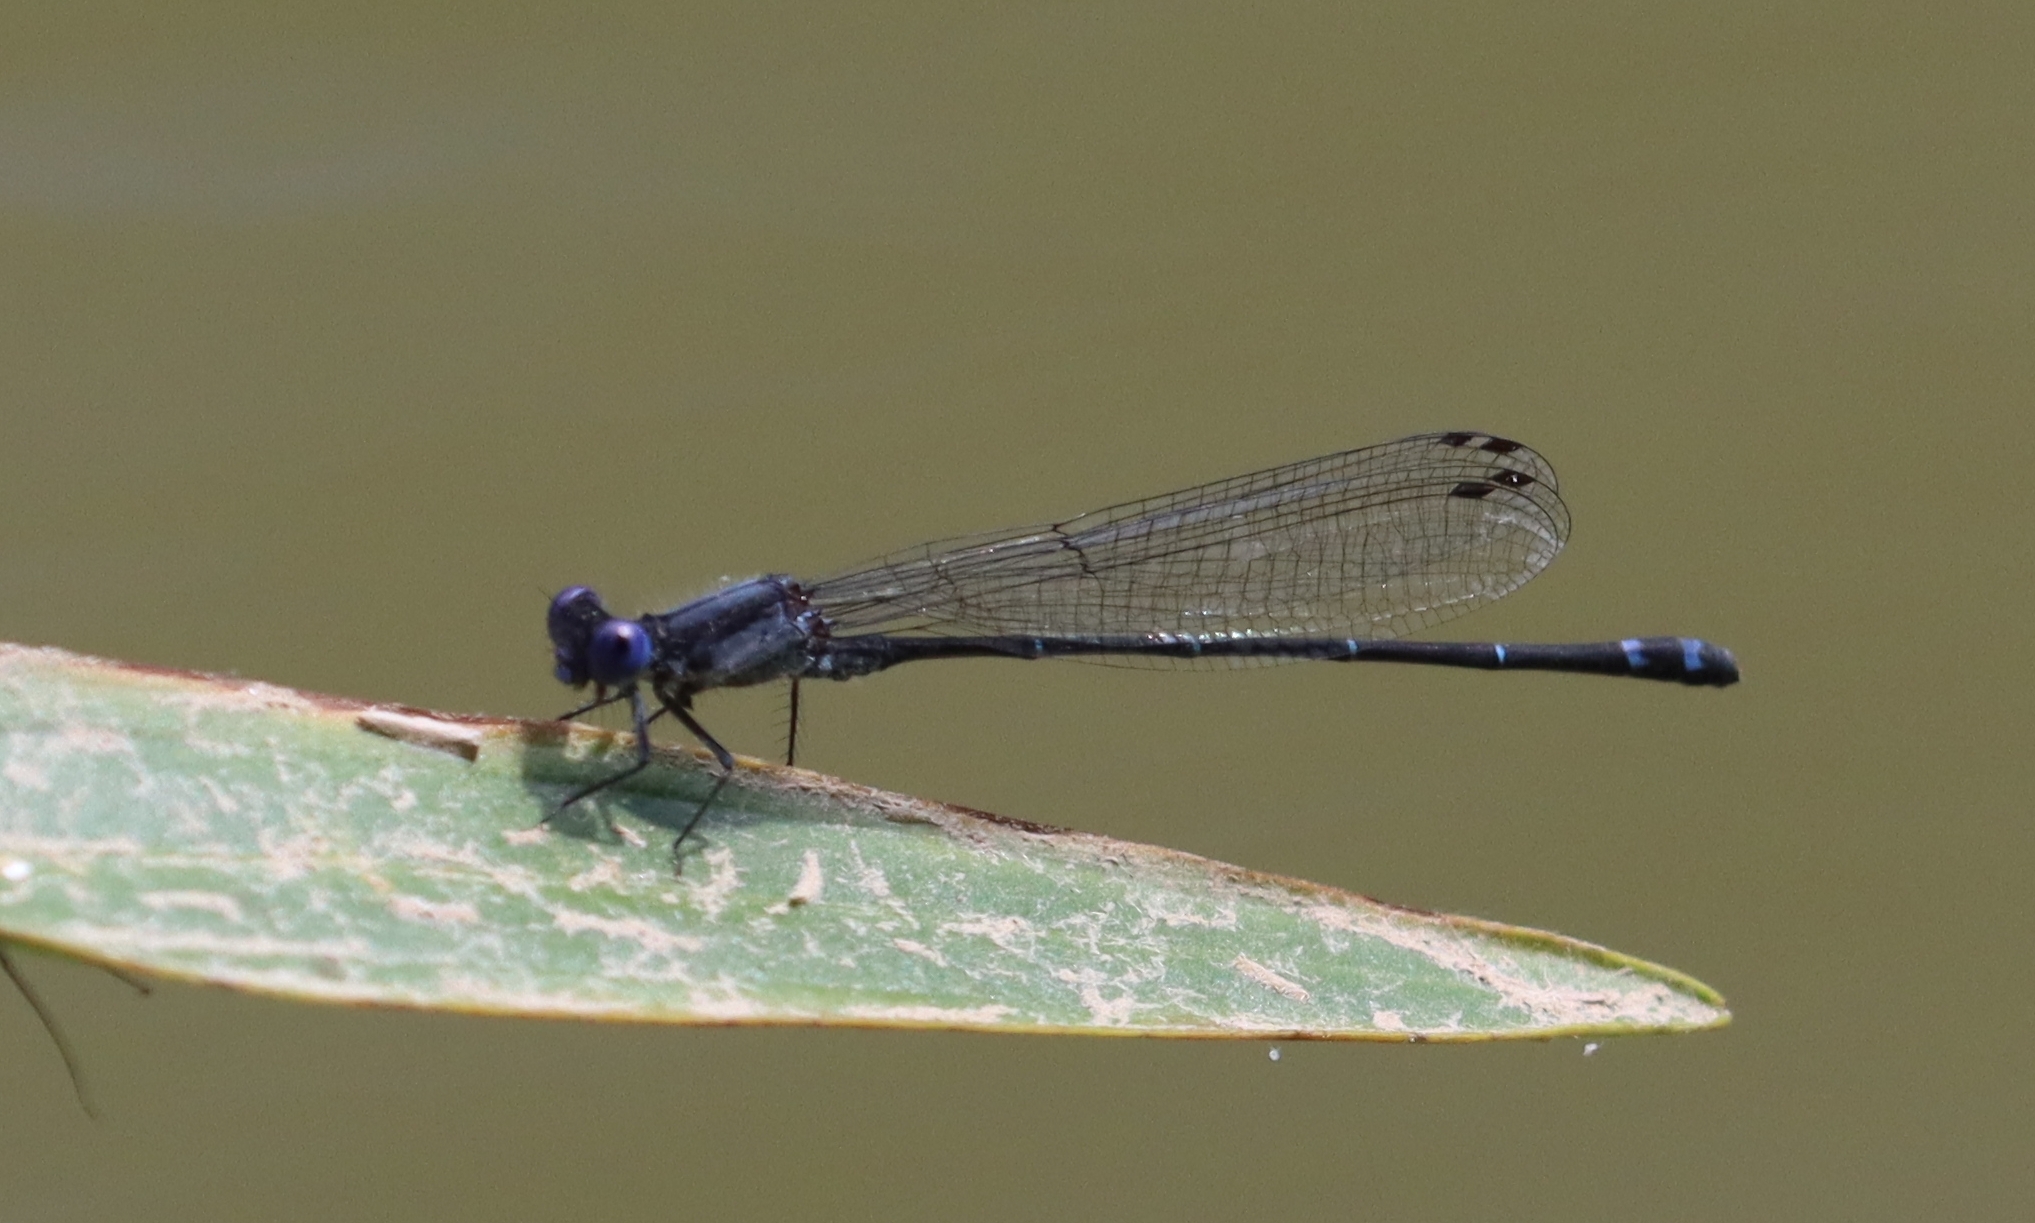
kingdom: Animalia
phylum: Arthropoda
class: Insecta
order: Odonata
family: Coenagrionidae
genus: Argia
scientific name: Argia translata
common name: Dusky dancer
